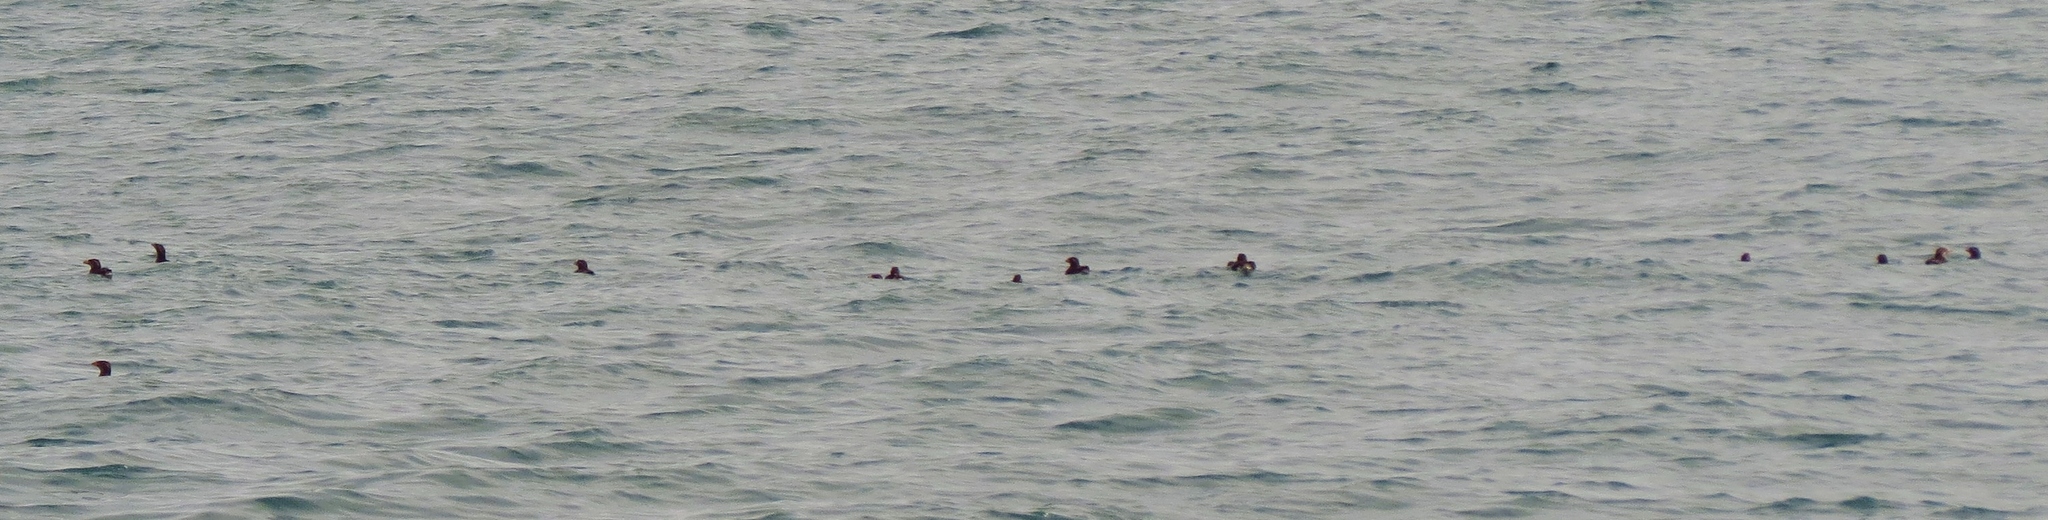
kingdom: Animalia
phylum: Chordata
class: Aves
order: Charadriiformes
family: Alcidae
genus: Cerorhinca
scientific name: Cerorhinca monocerata
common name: Rhinoceros auklet
